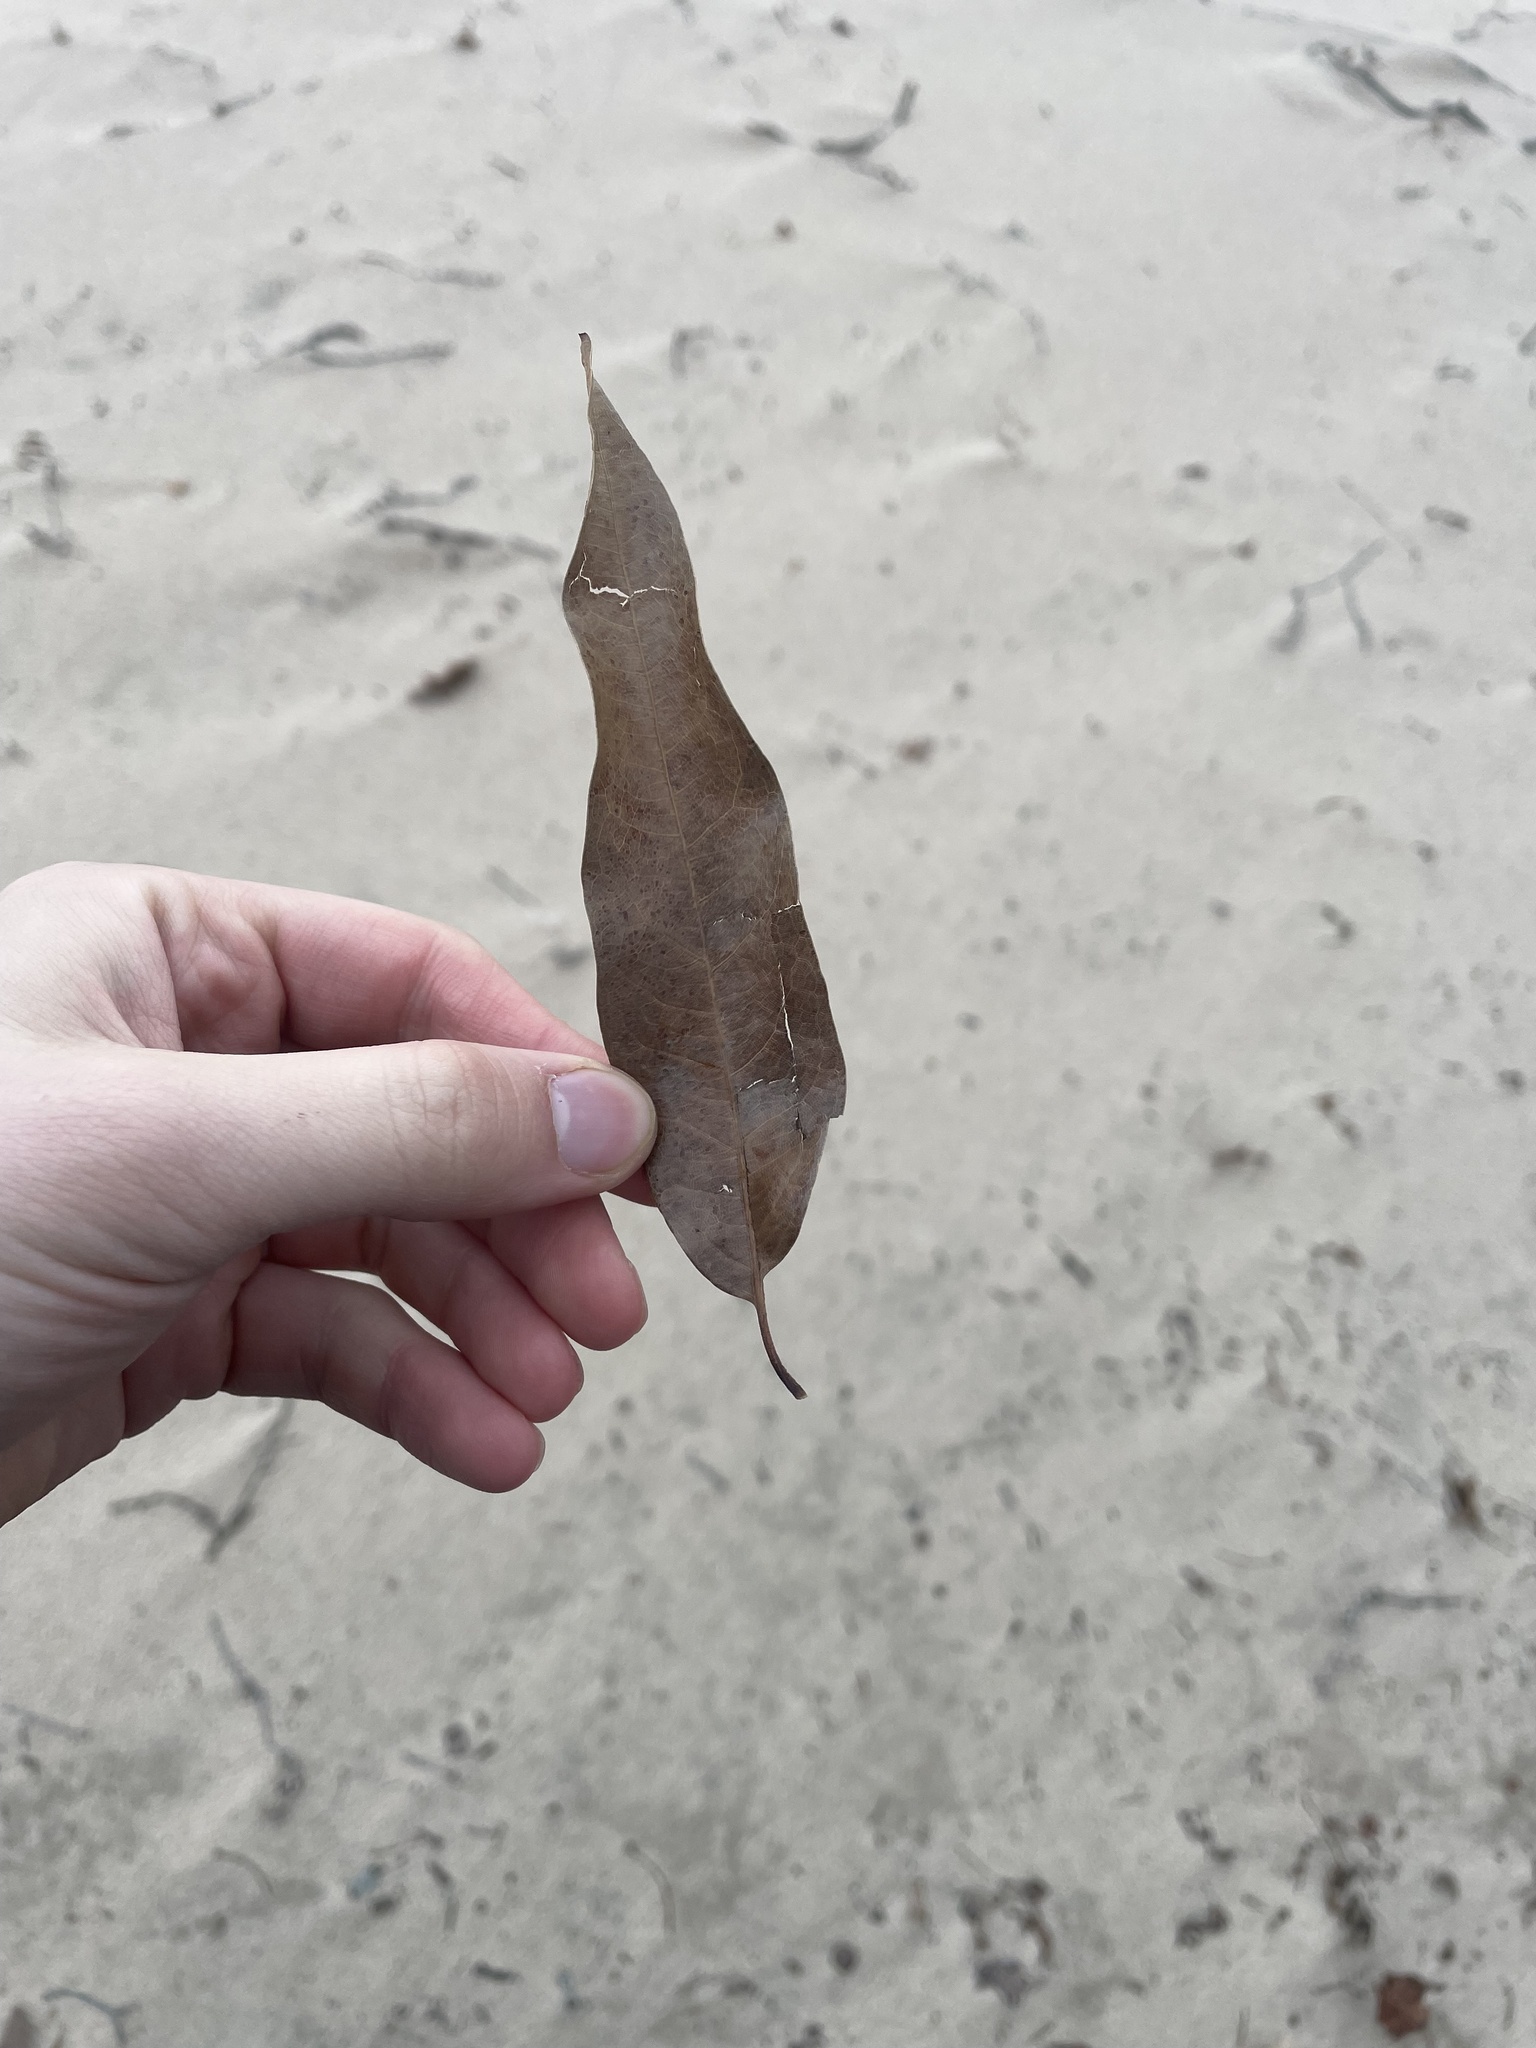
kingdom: Plantae
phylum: Tracheophyta
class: Magnoliopsida
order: Fagales
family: Fagaceae
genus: Quercus
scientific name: Quercus imbricaria
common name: Shingle oak
